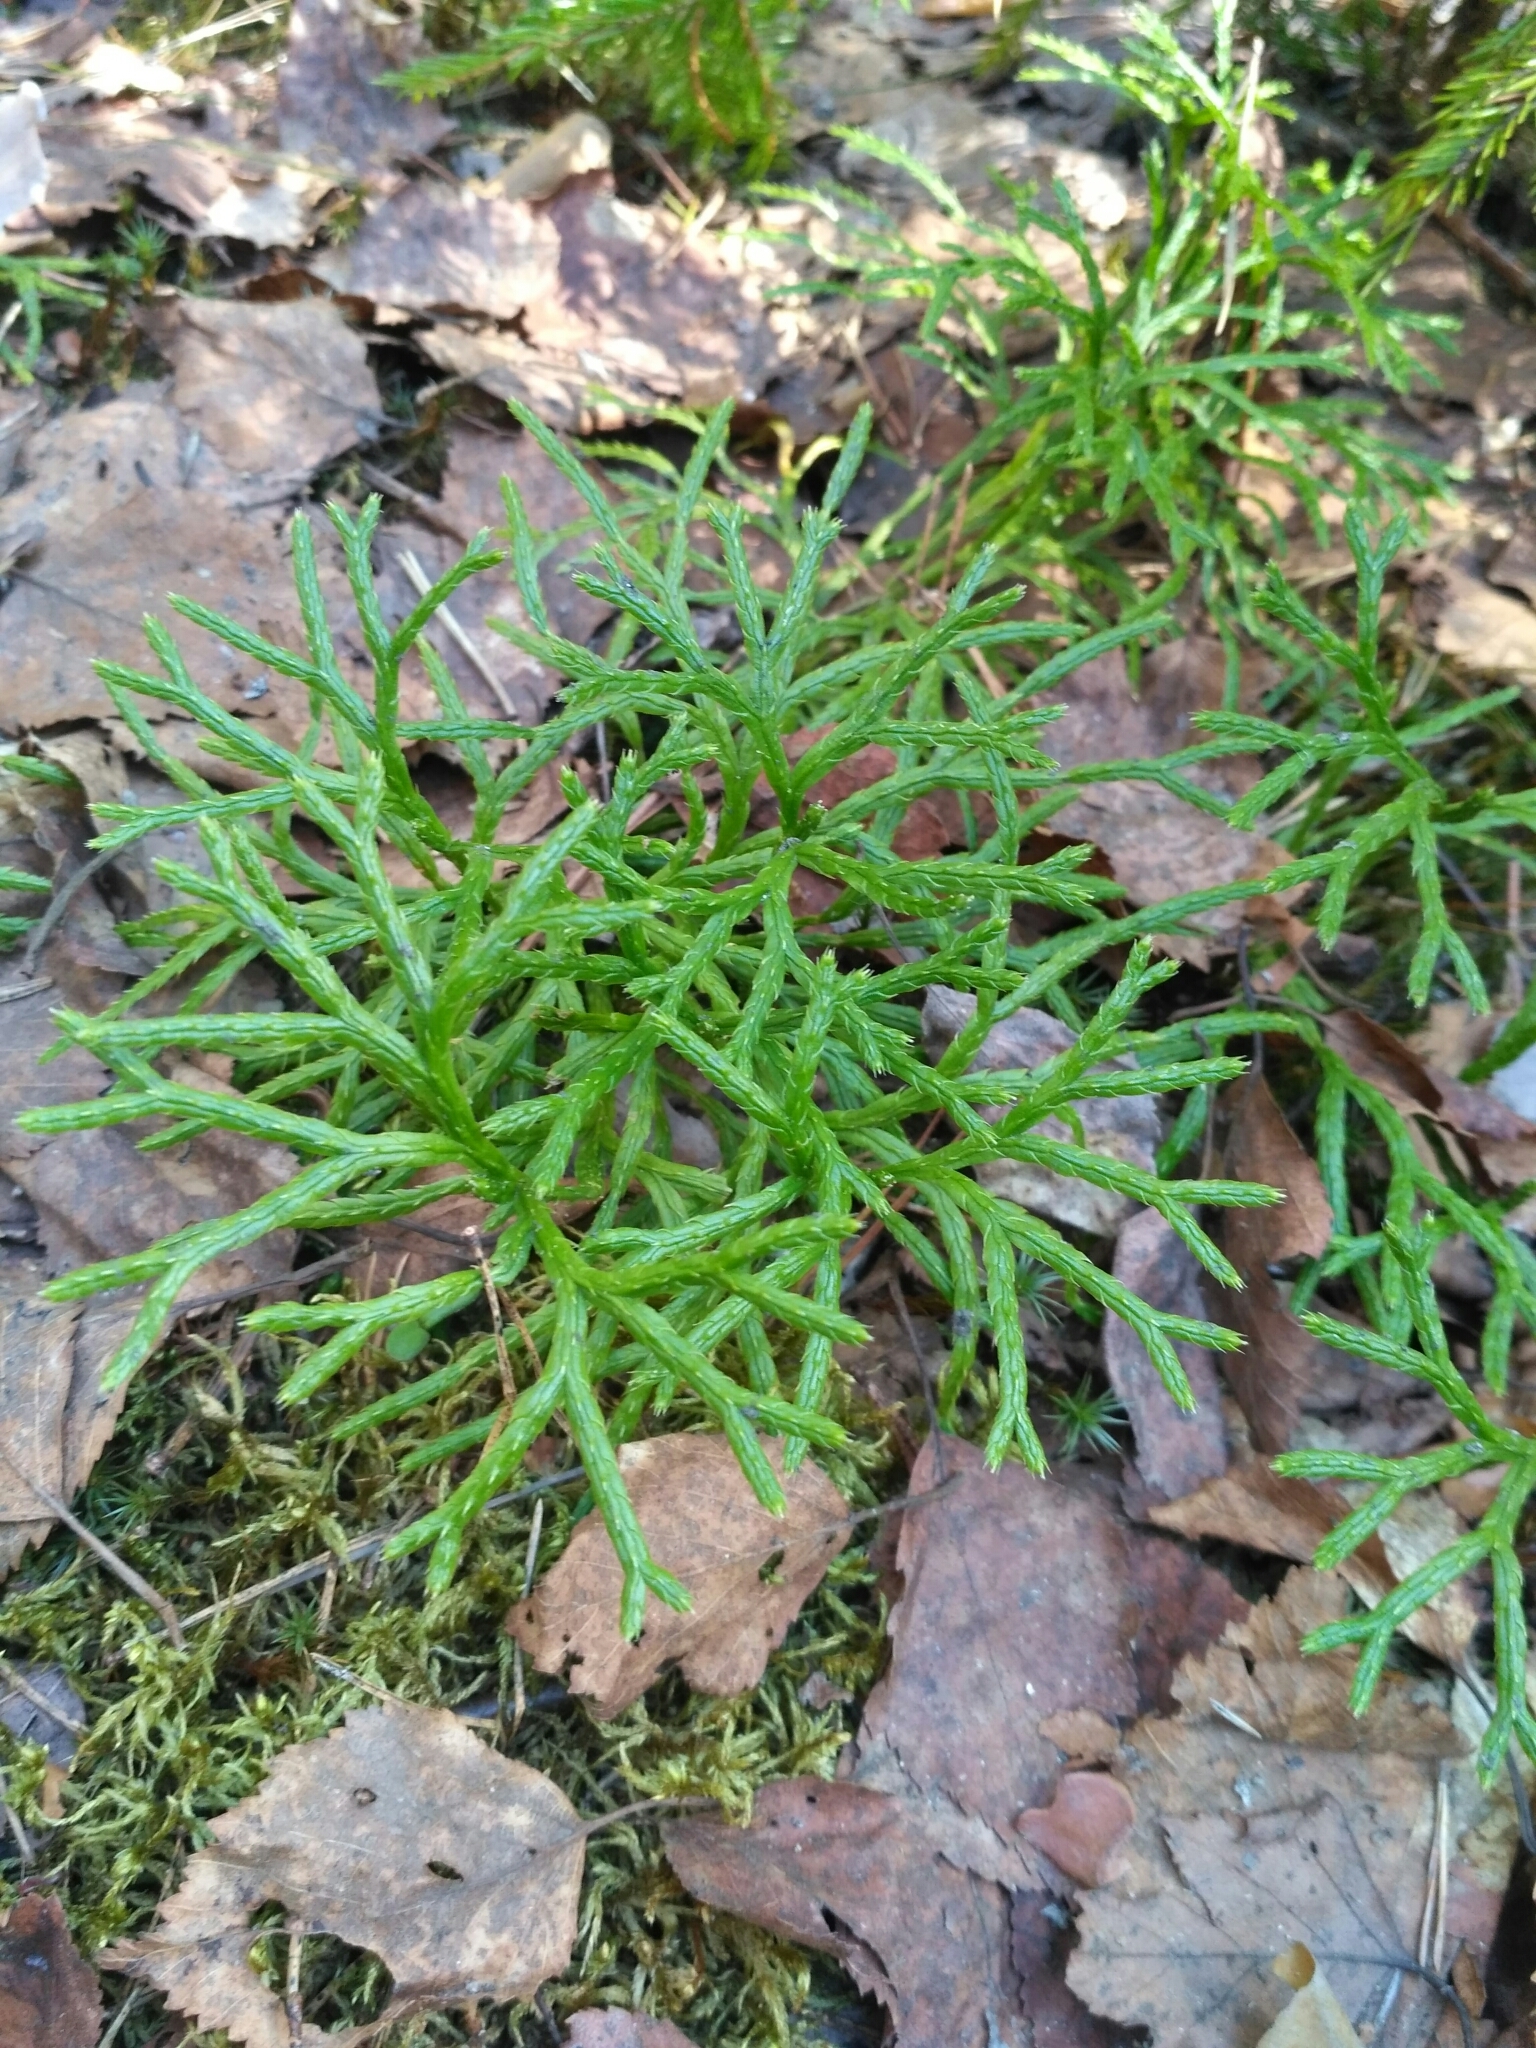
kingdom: Plantae
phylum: Tracheophyta
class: Lycopodiopsida
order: Lycopodiales
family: Lycopodiaceae
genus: Diphasiastrum
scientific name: Diphasiastrum complanatum
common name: Northern running-pine
